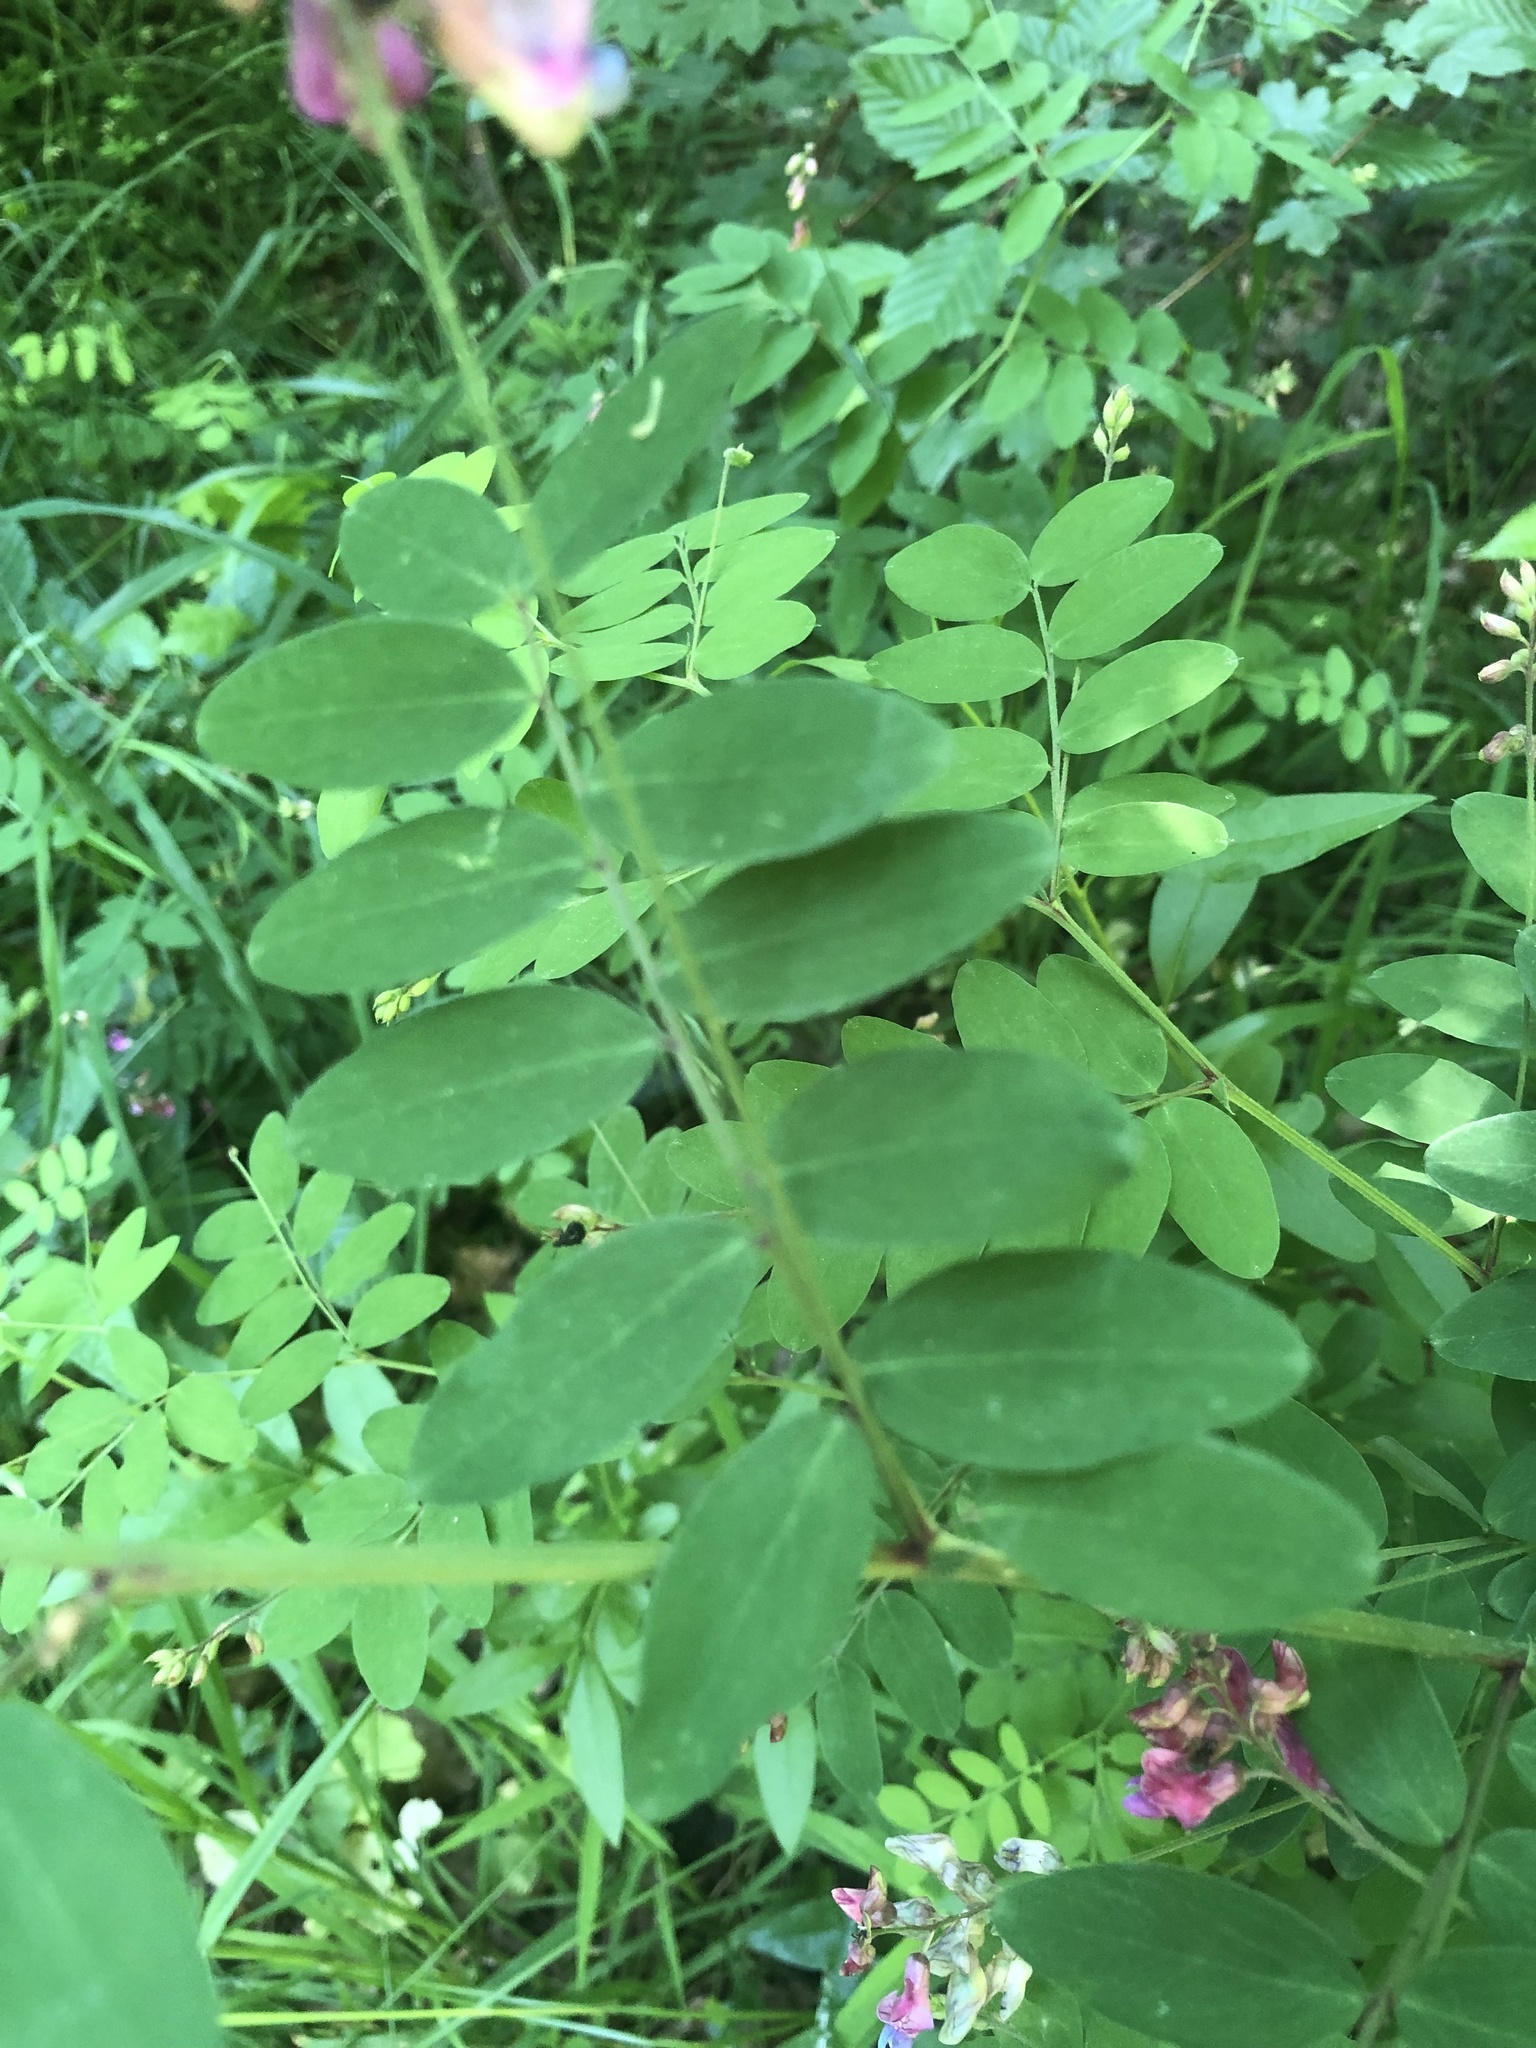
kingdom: Plantae
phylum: Tracheophyta
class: Magnoliopsida
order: Fabales
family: Fabaceae
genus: Lathyrus
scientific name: Lathyrus niger
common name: Black pea
